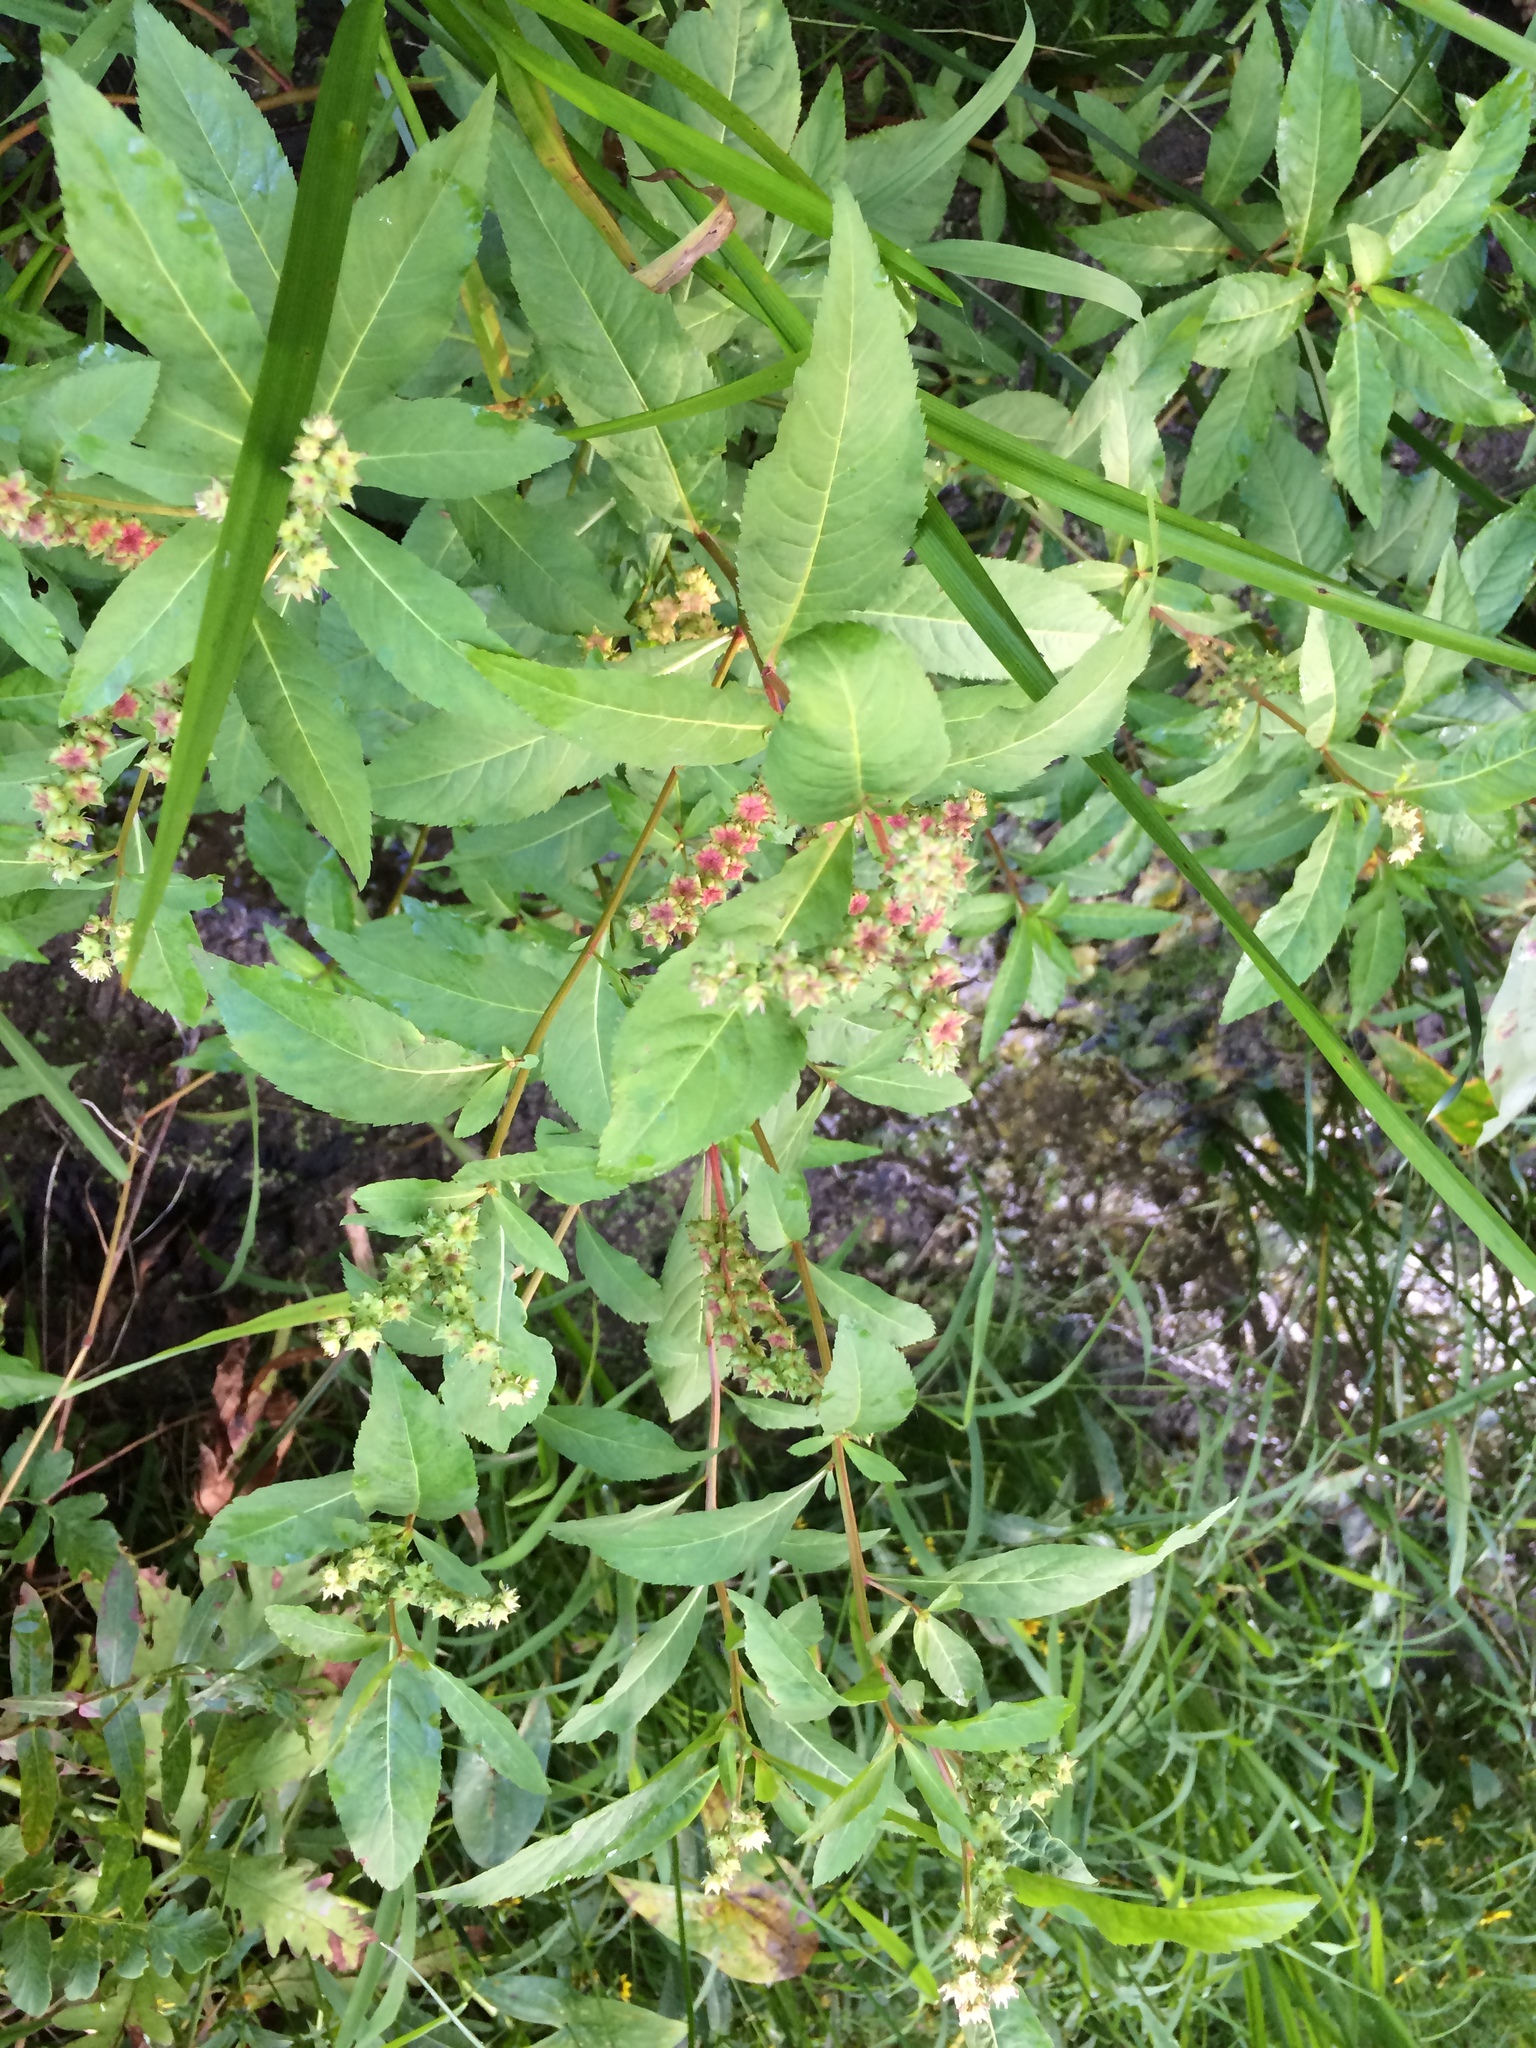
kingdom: Plantae
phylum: Tracheophyta
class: Magnoliopsida
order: Saxifragales
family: Penthoraceae
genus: Penthorum
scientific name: Penthorum sedoides
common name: Ditch stonecrop
